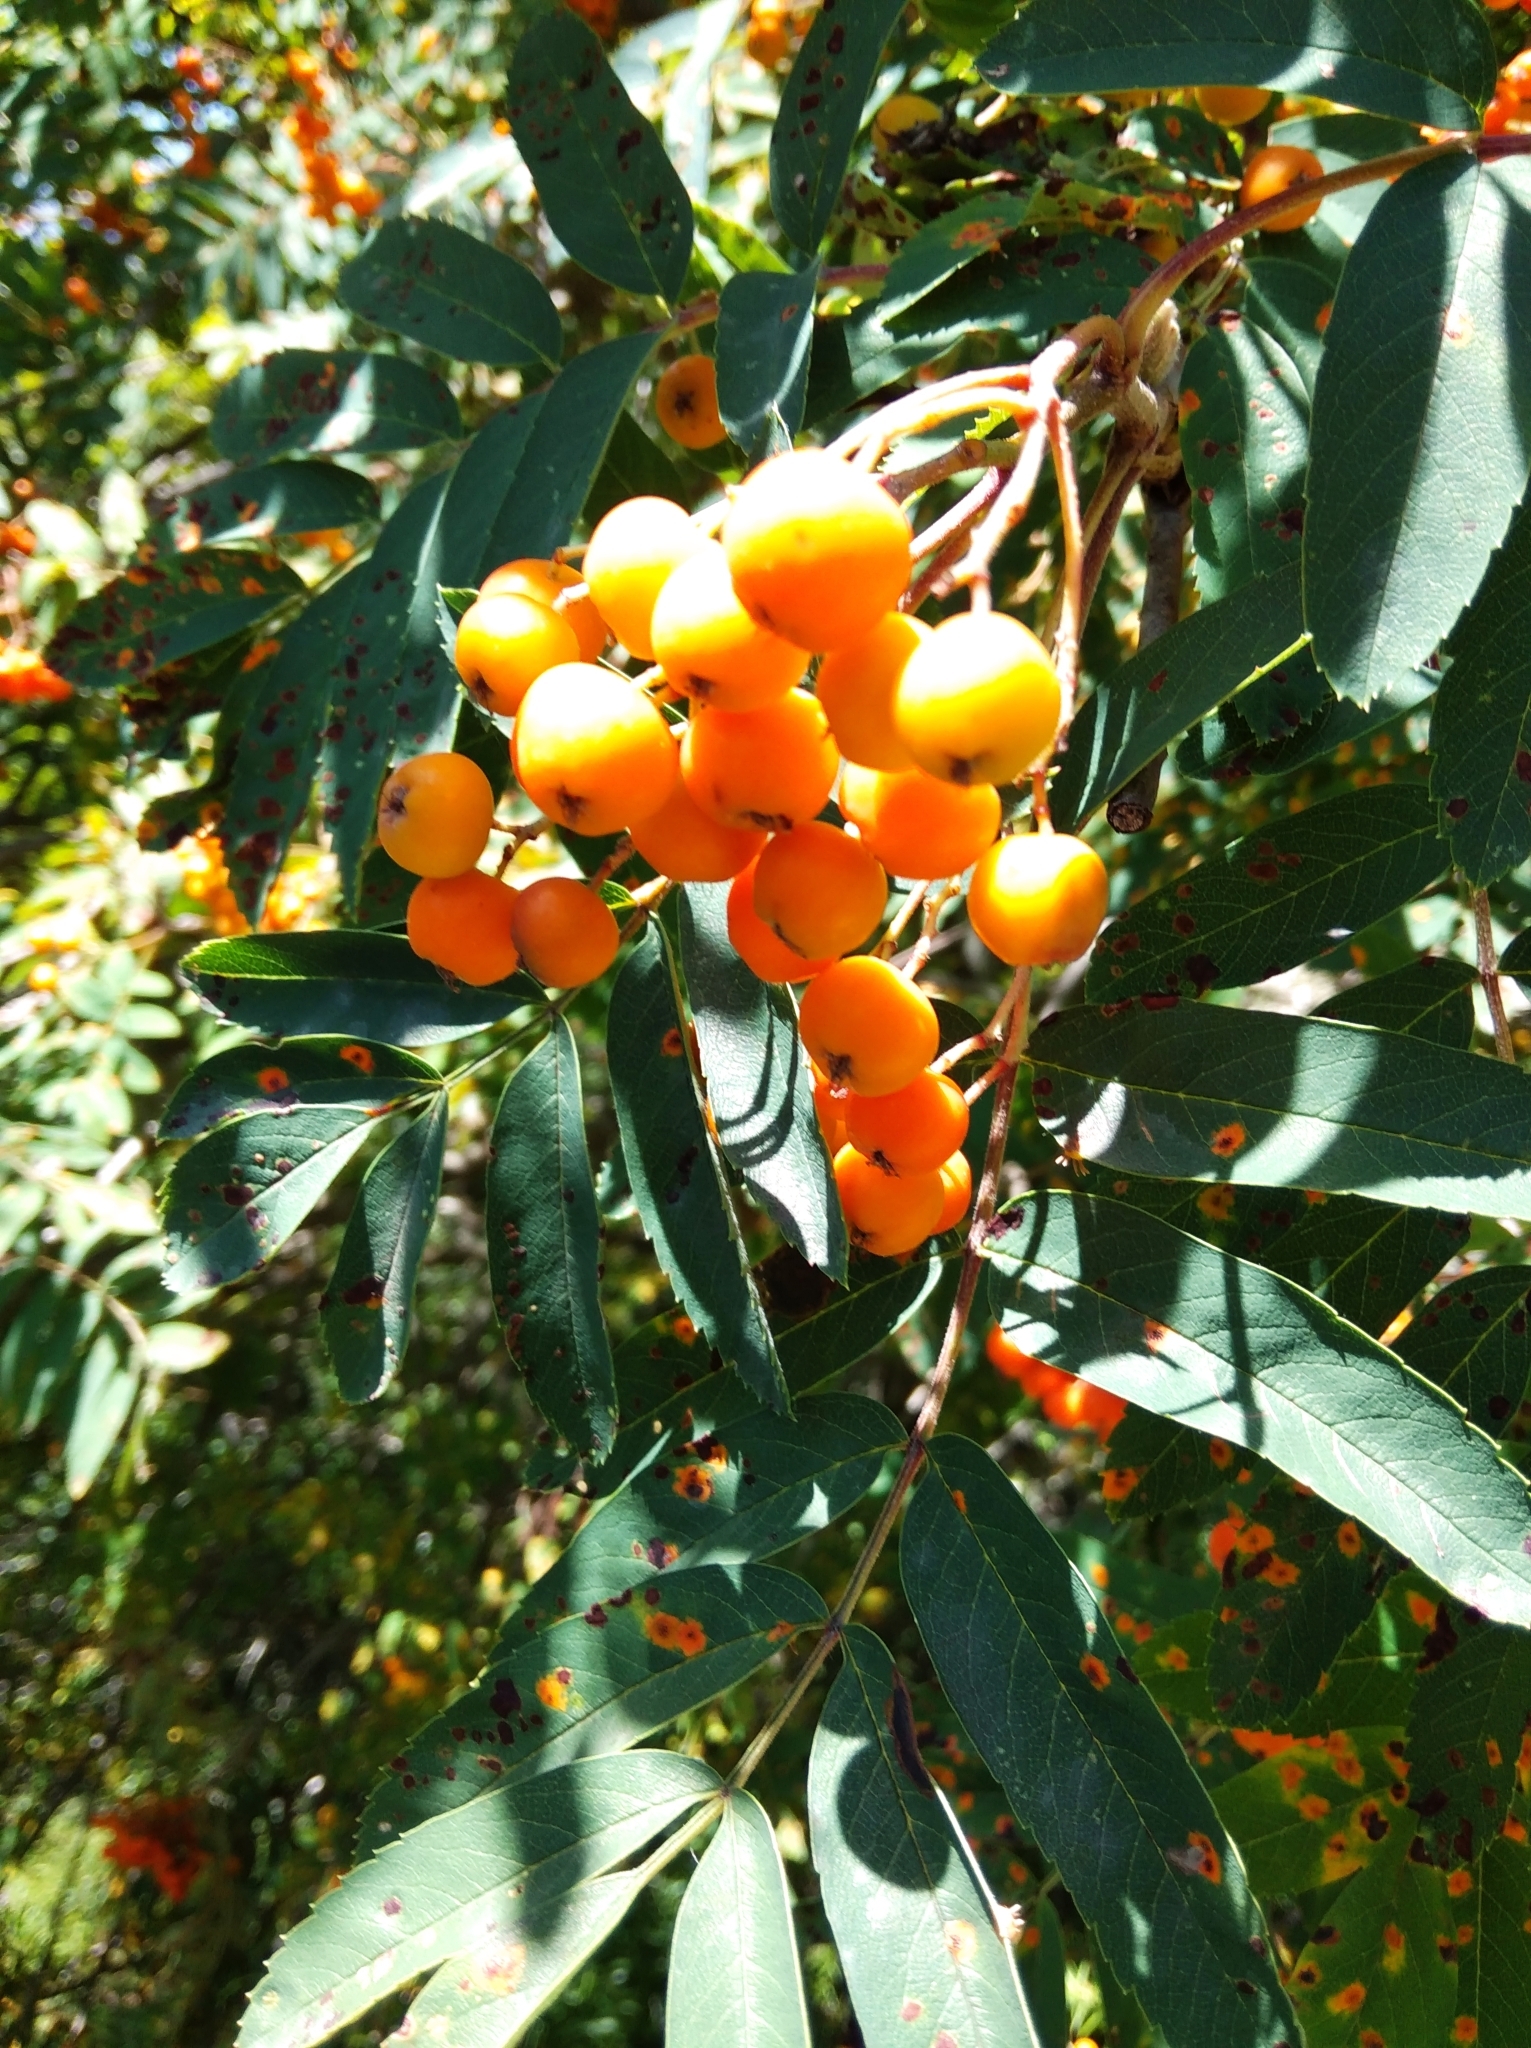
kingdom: Plantae
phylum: Tracheophyta
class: Magnoliopsida
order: Rosales
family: Rosaceae
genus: Sorbus
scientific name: Sorbus aucuparia
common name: Rowan
